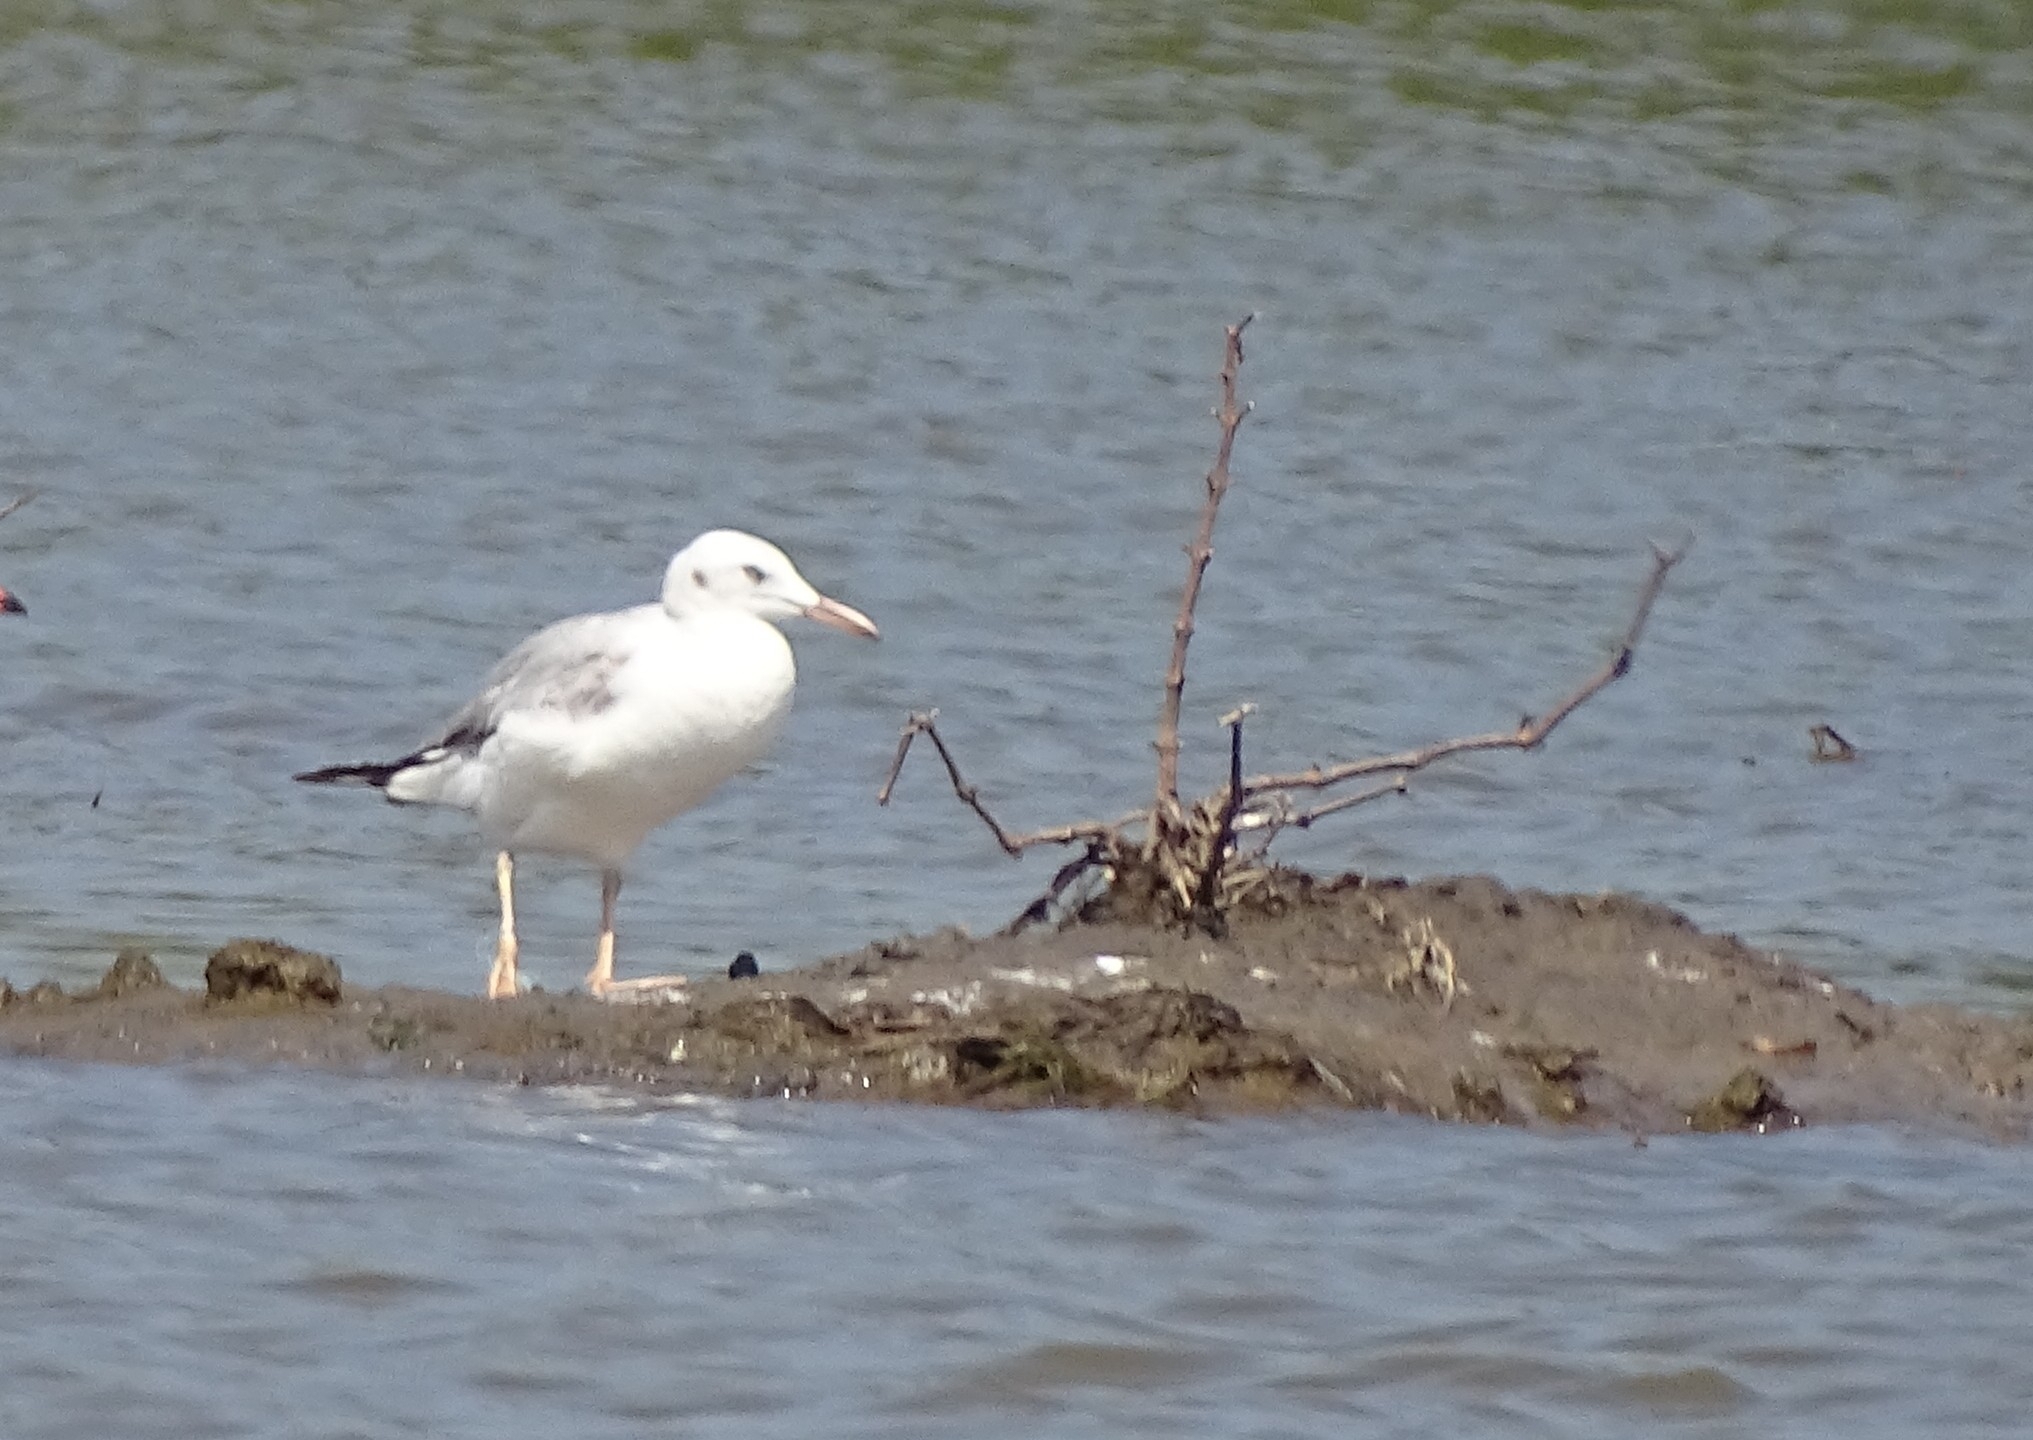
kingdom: Animalia
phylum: Chordata
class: Aves
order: Charadriiformes
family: Laridae
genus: Chroicocephalus
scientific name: Chroicocephalus genei
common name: Slender-billed gull
